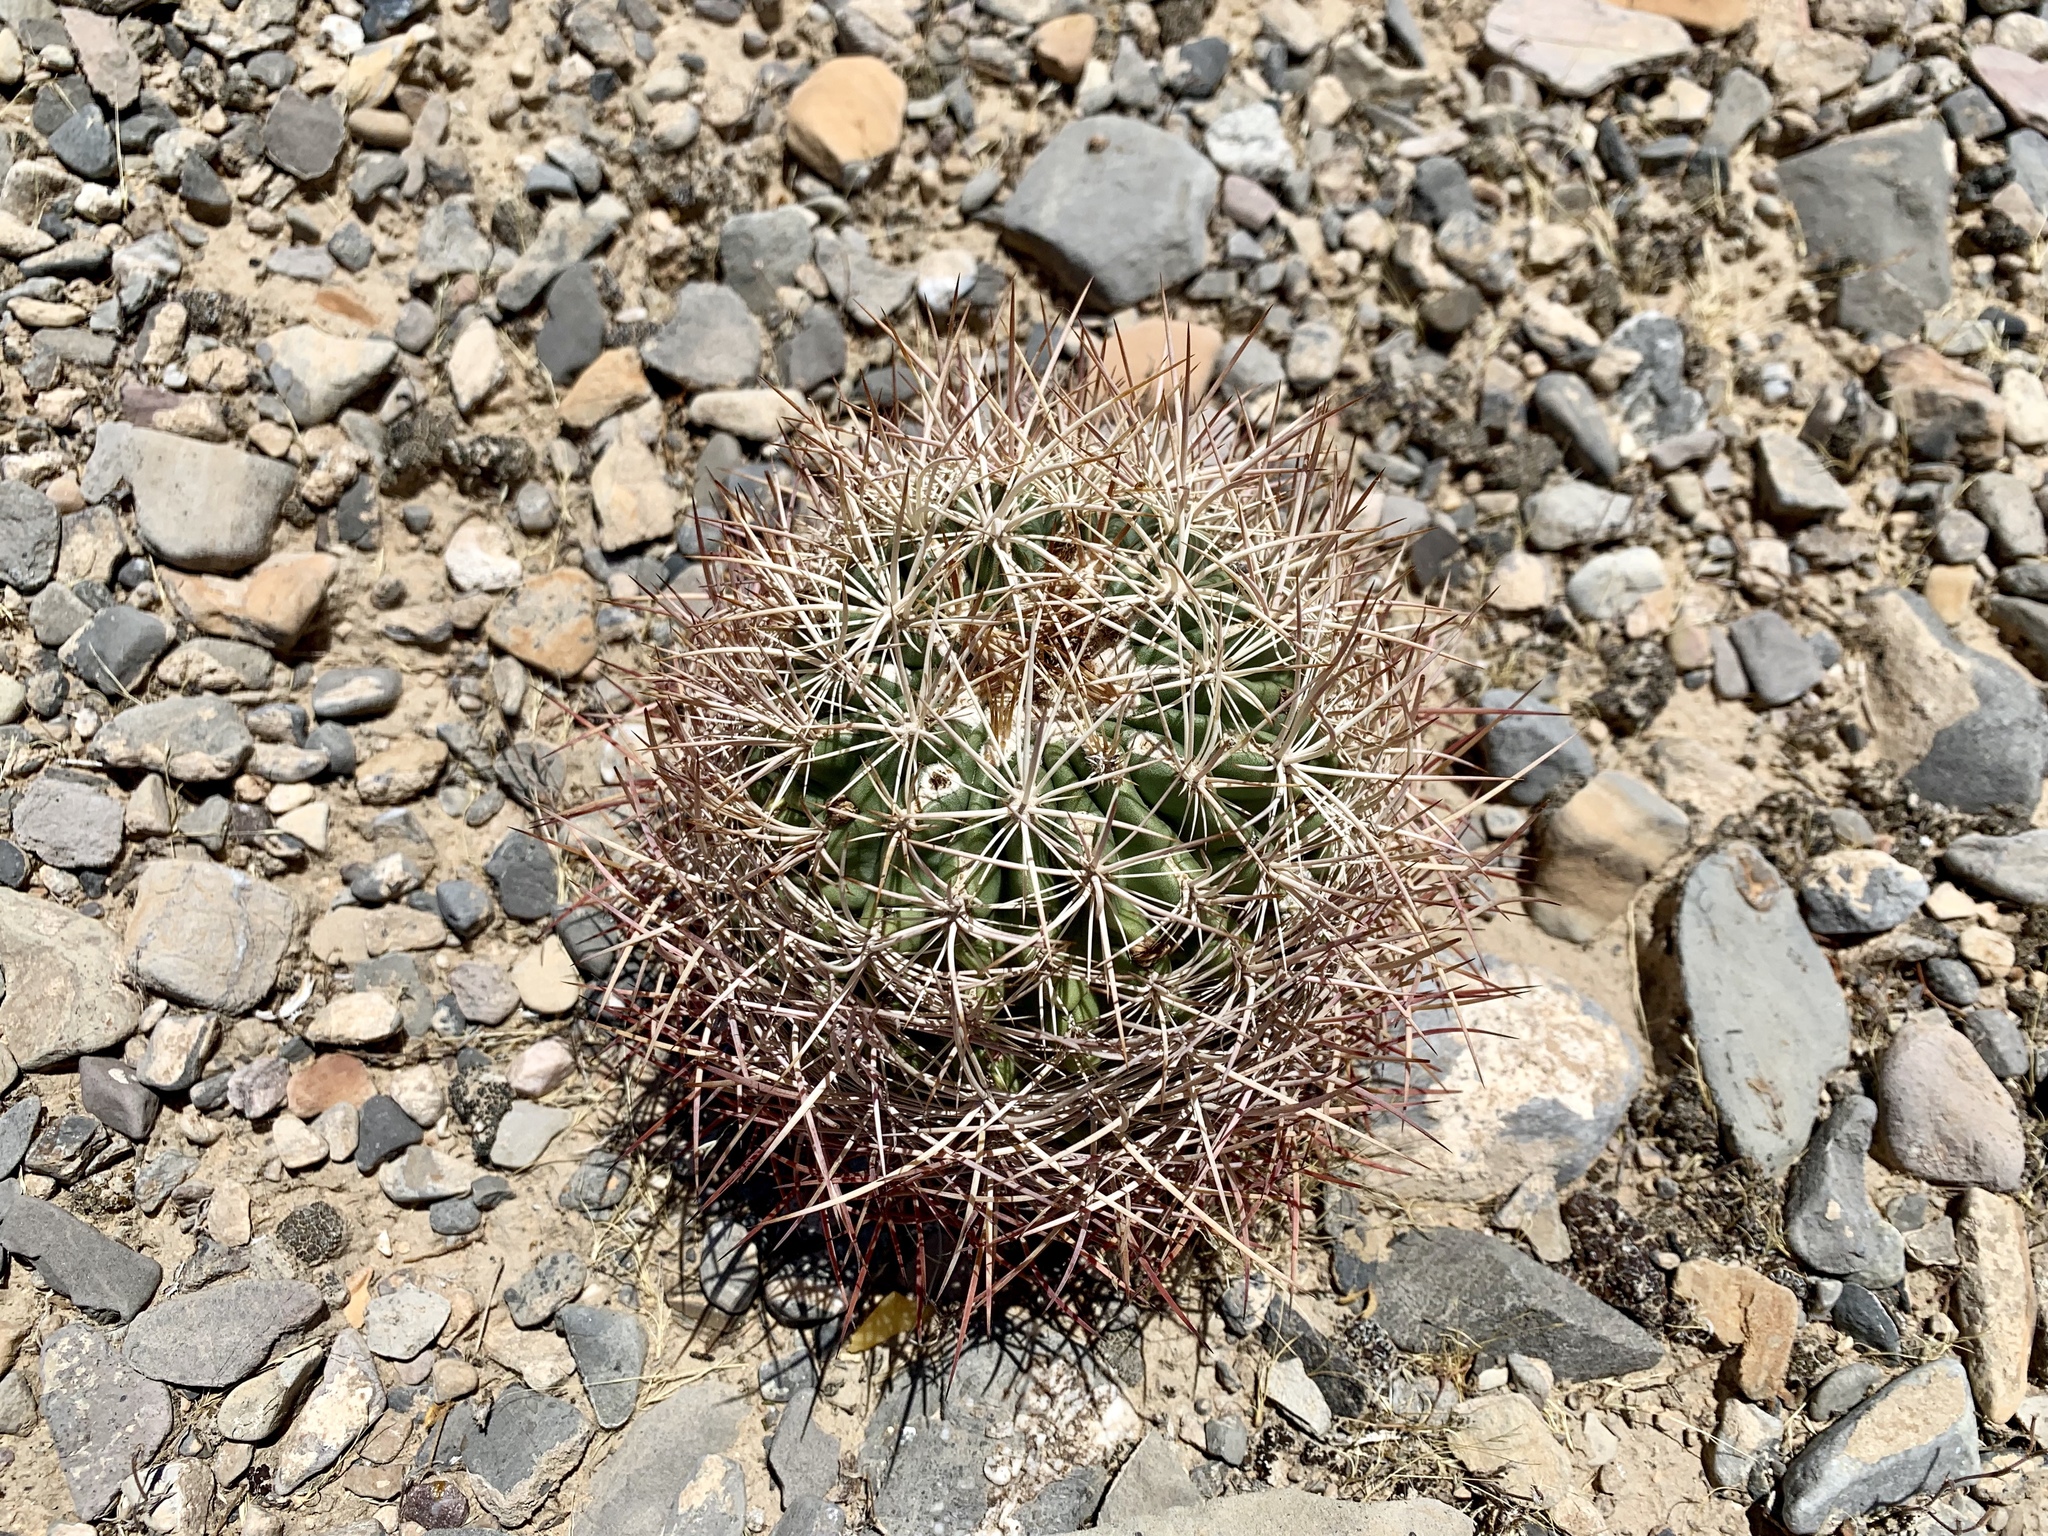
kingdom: Plantae
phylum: Tracheophyta
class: Magnoliopsida
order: Caryophyllales
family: Cactaceae
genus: Sclerocactus
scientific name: Sclerocactus johnsonii
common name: Eight-spine fishhook cactus
